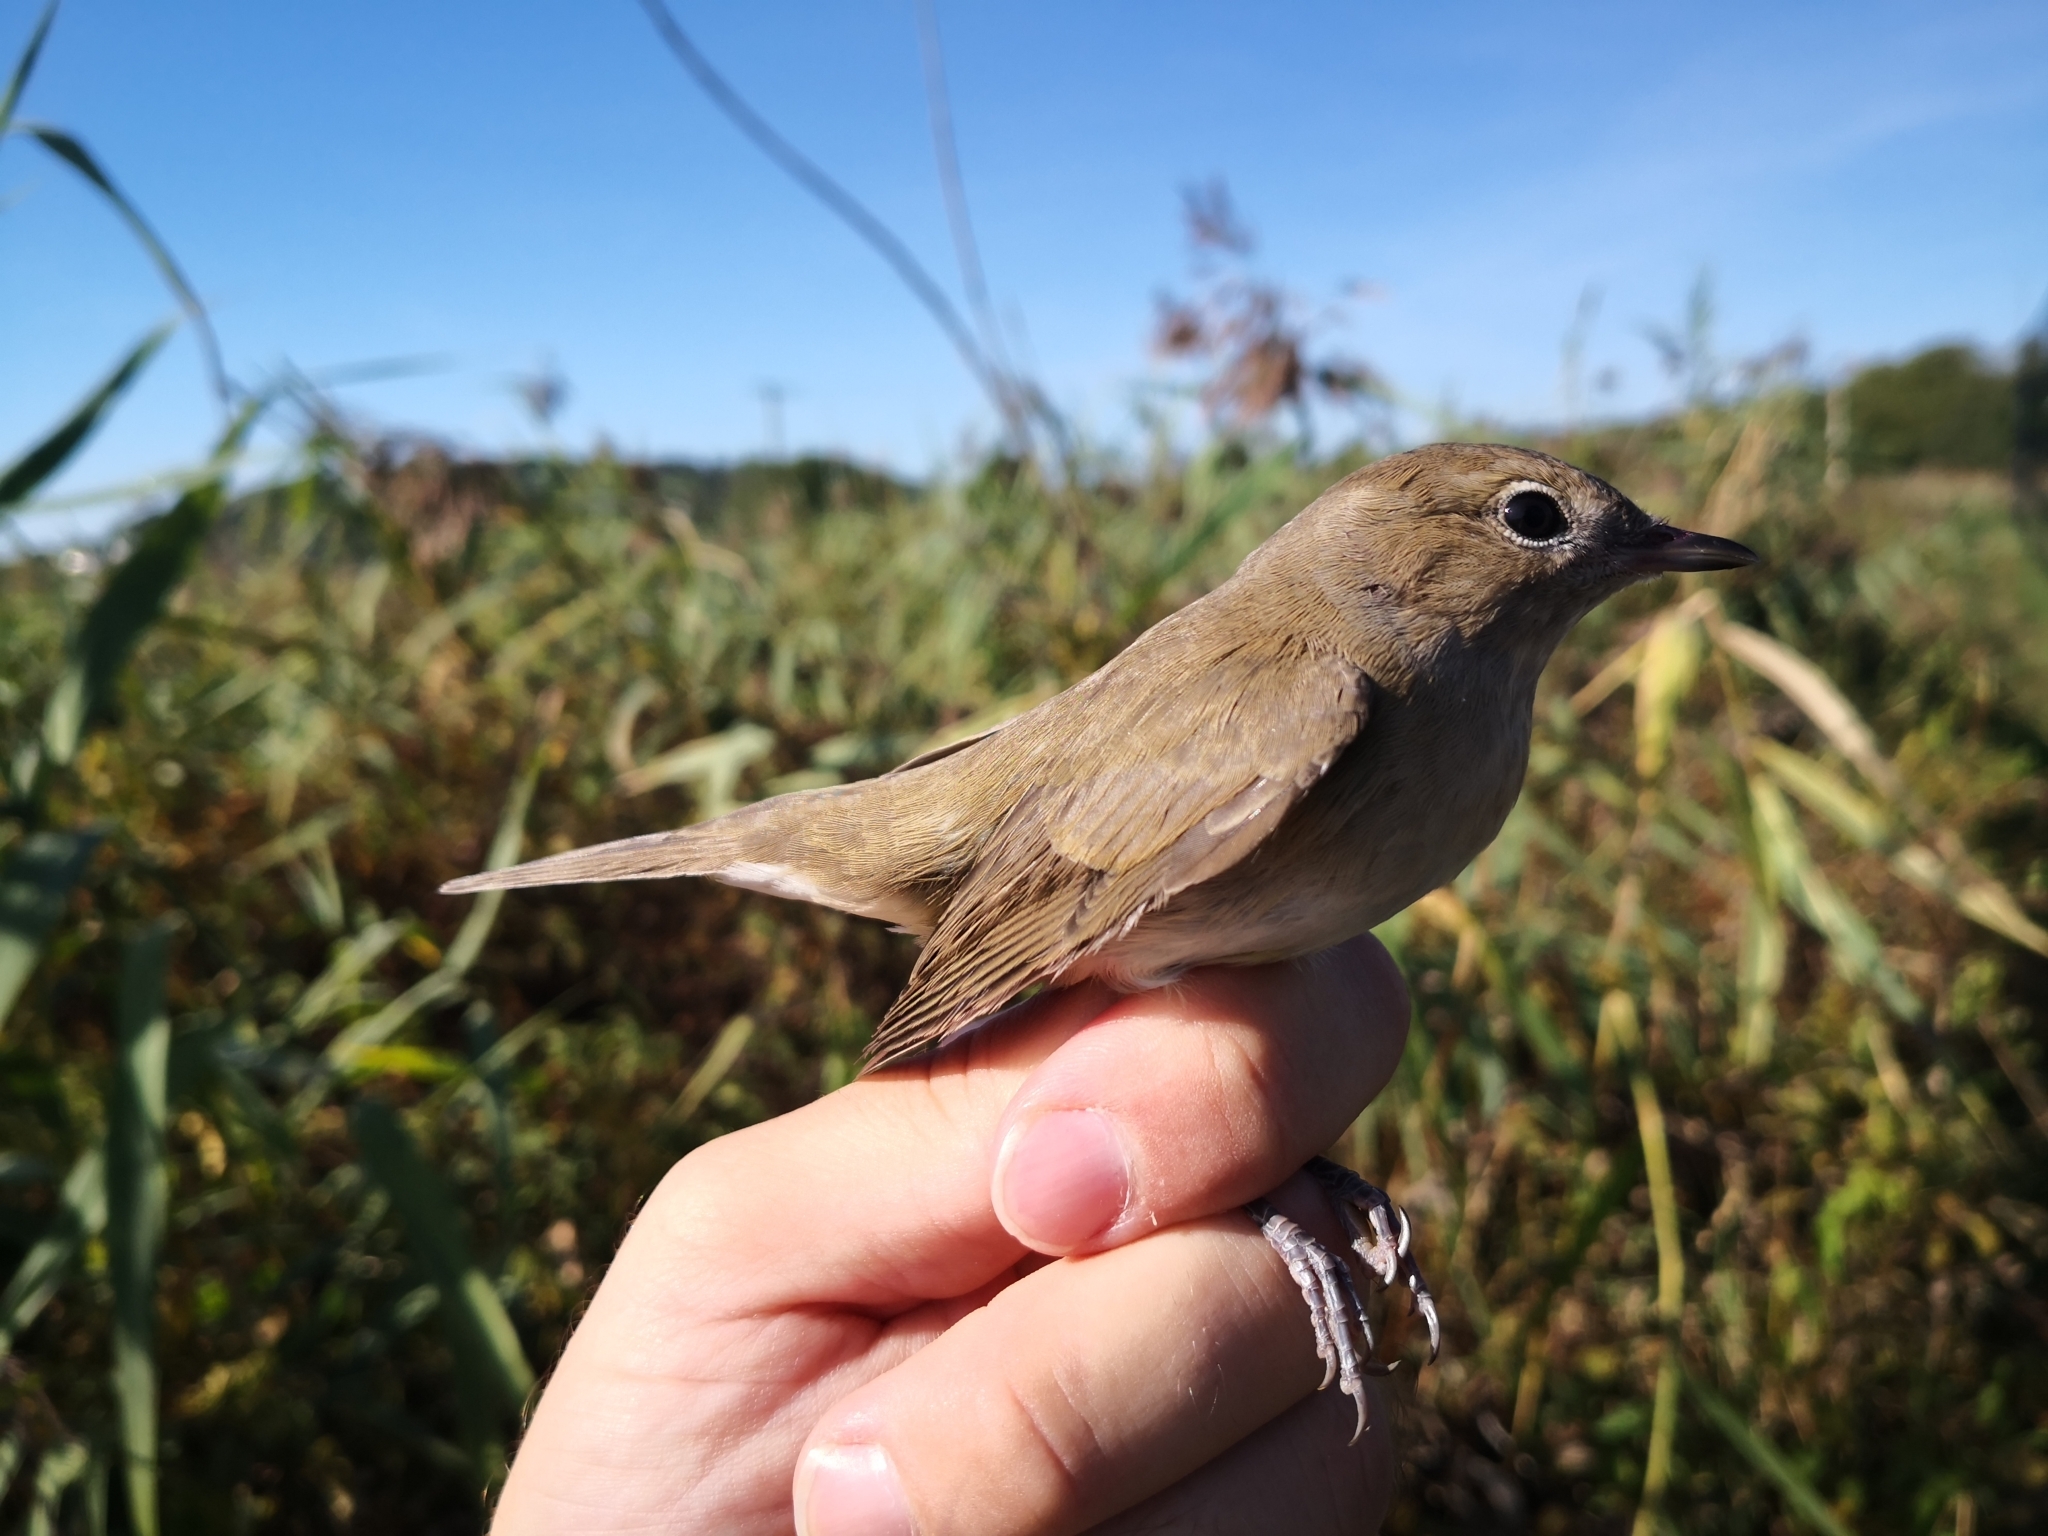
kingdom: Animalia
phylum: Chordata
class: Aves
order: Passeriformes
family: Sylviidae
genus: Sylvia
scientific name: Sylvia borin
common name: Garden warbler
